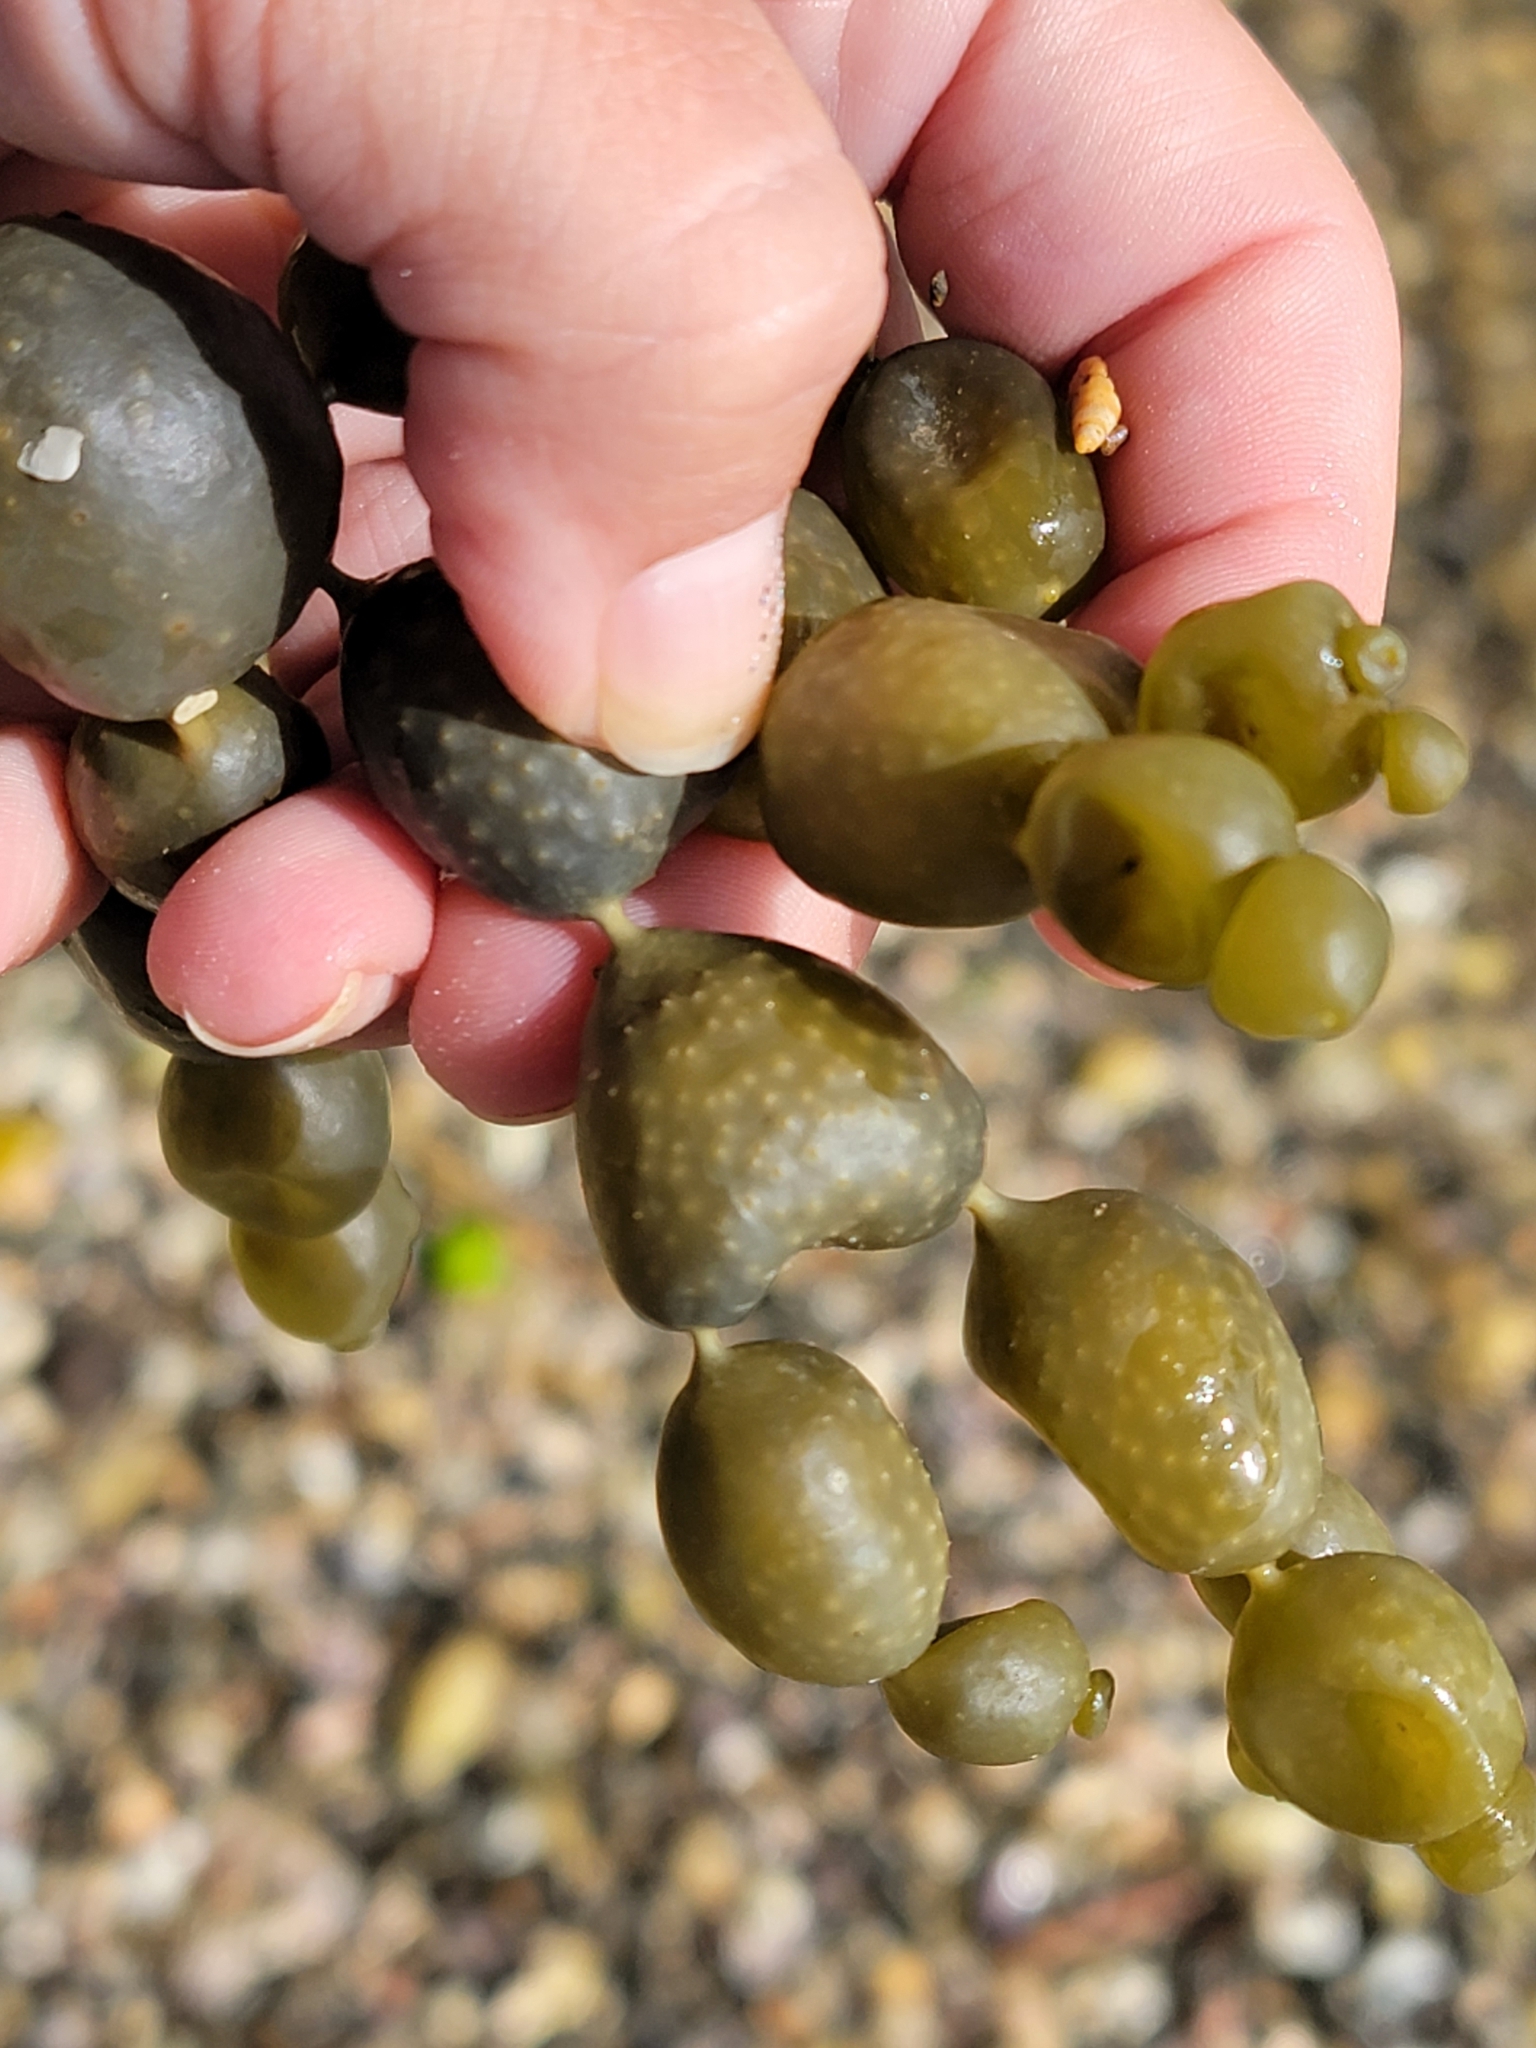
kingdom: Chromista
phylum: Ochrophyta
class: Phaeophyceae
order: Fucales
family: Hormosiraceae
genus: Hormosira
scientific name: Hormosira banksii
